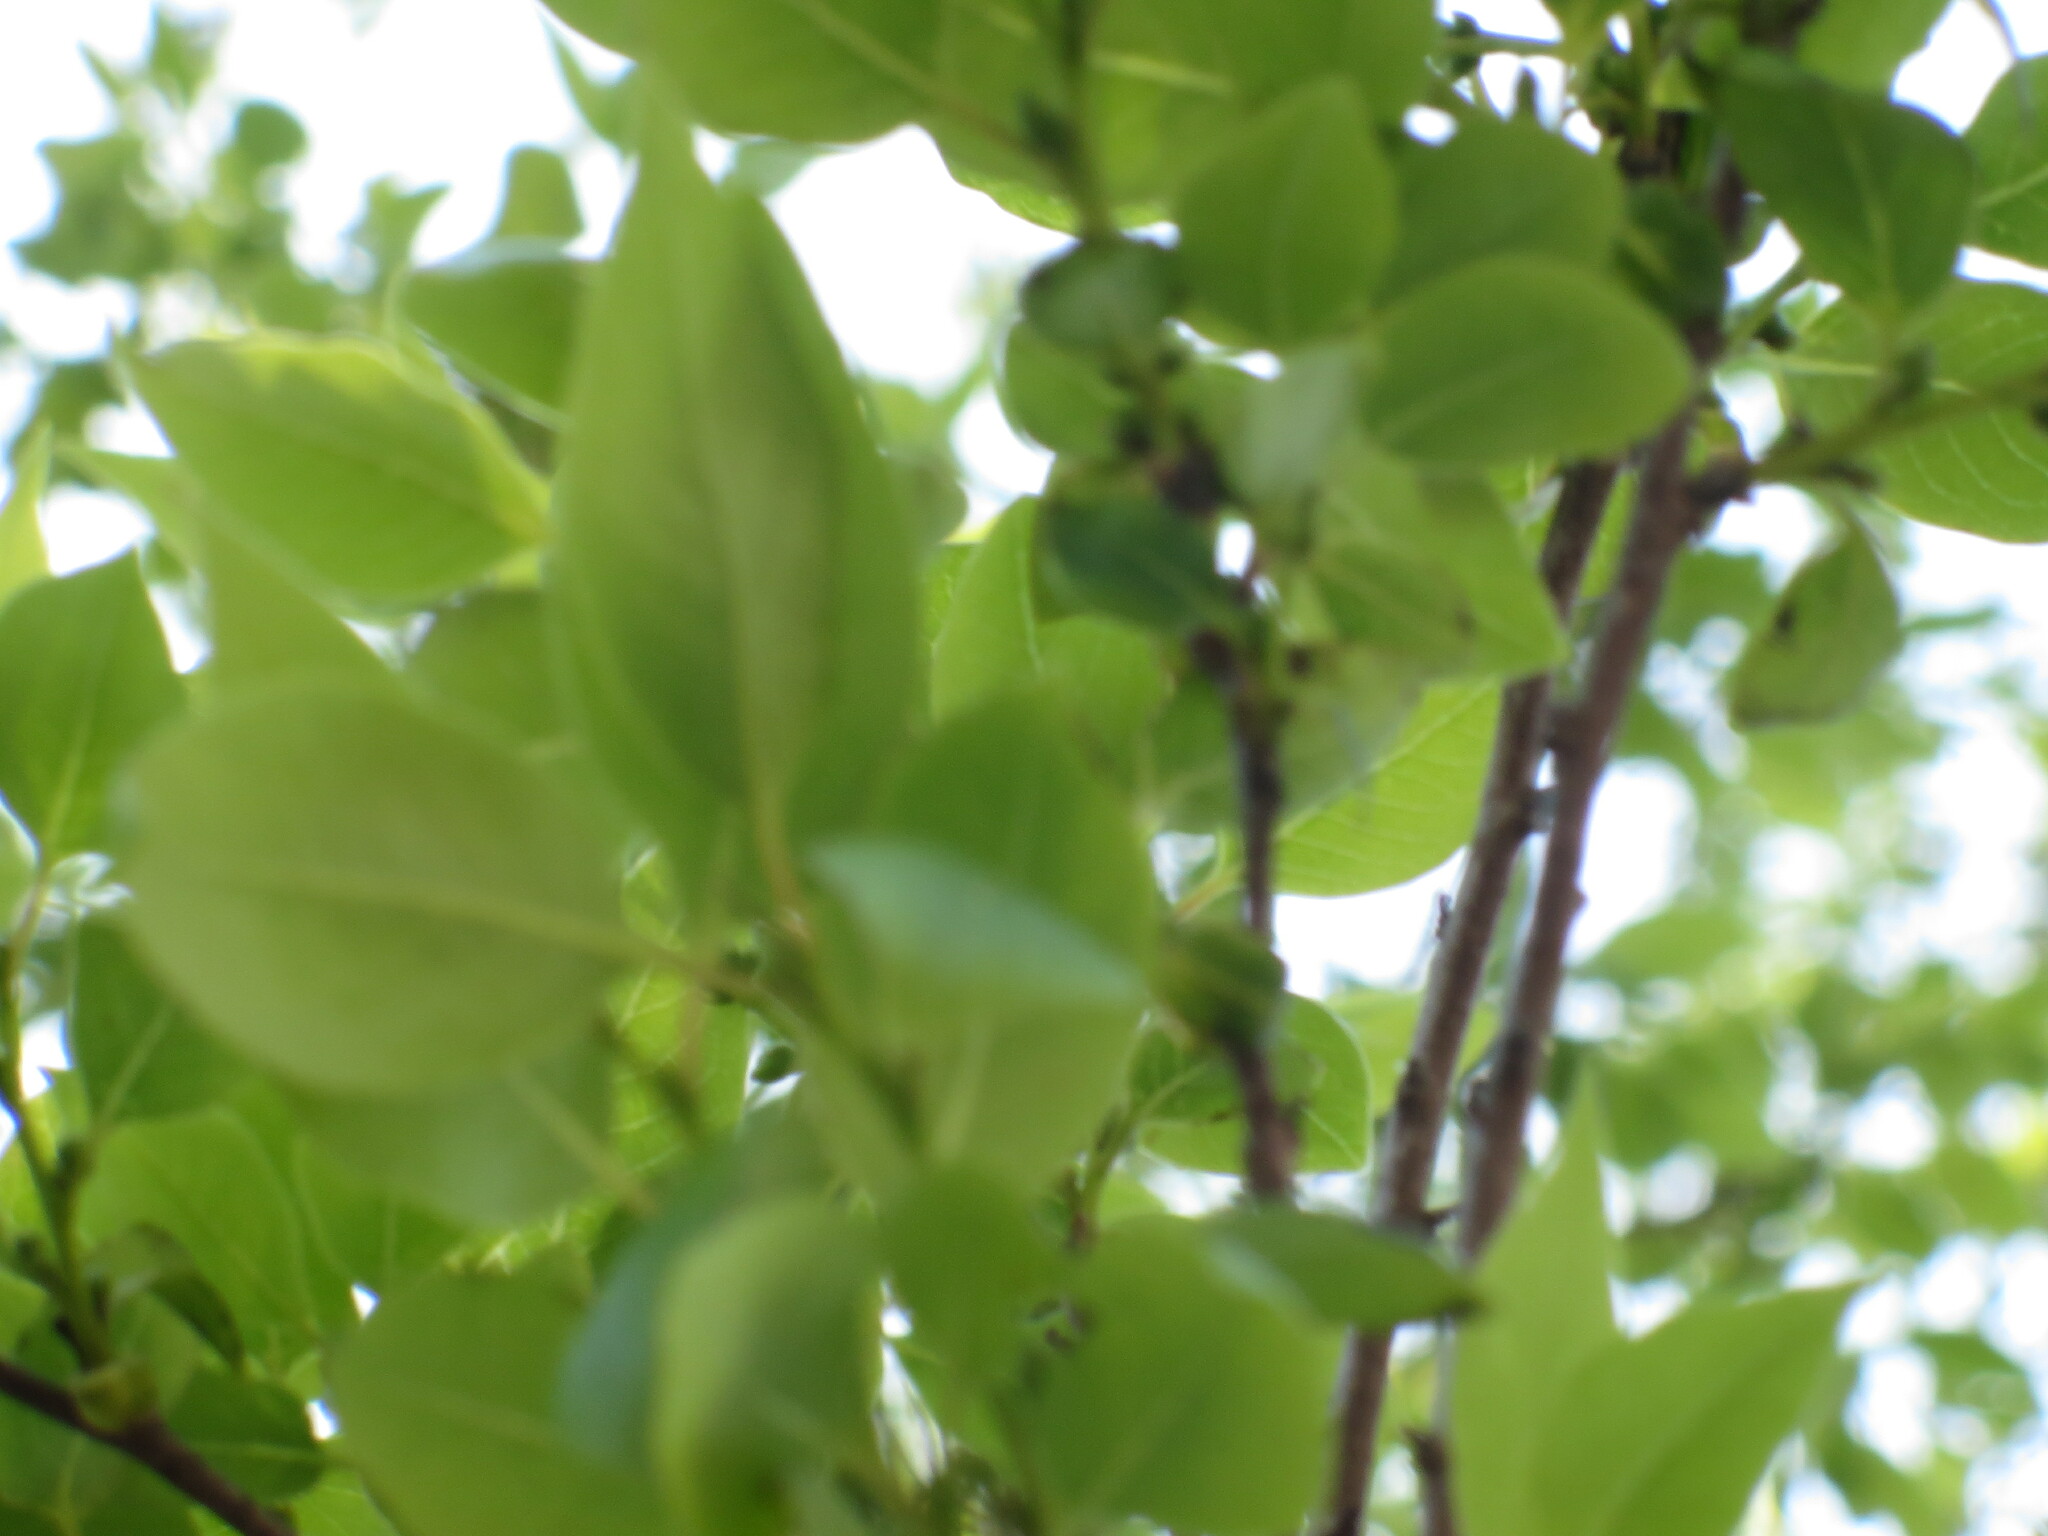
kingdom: Plantae
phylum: Tracheophyta
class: Magnoliopsida
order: Ericales
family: Ebenaceae
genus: Diospyros
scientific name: Diospyros virginiana
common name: Persimmon
